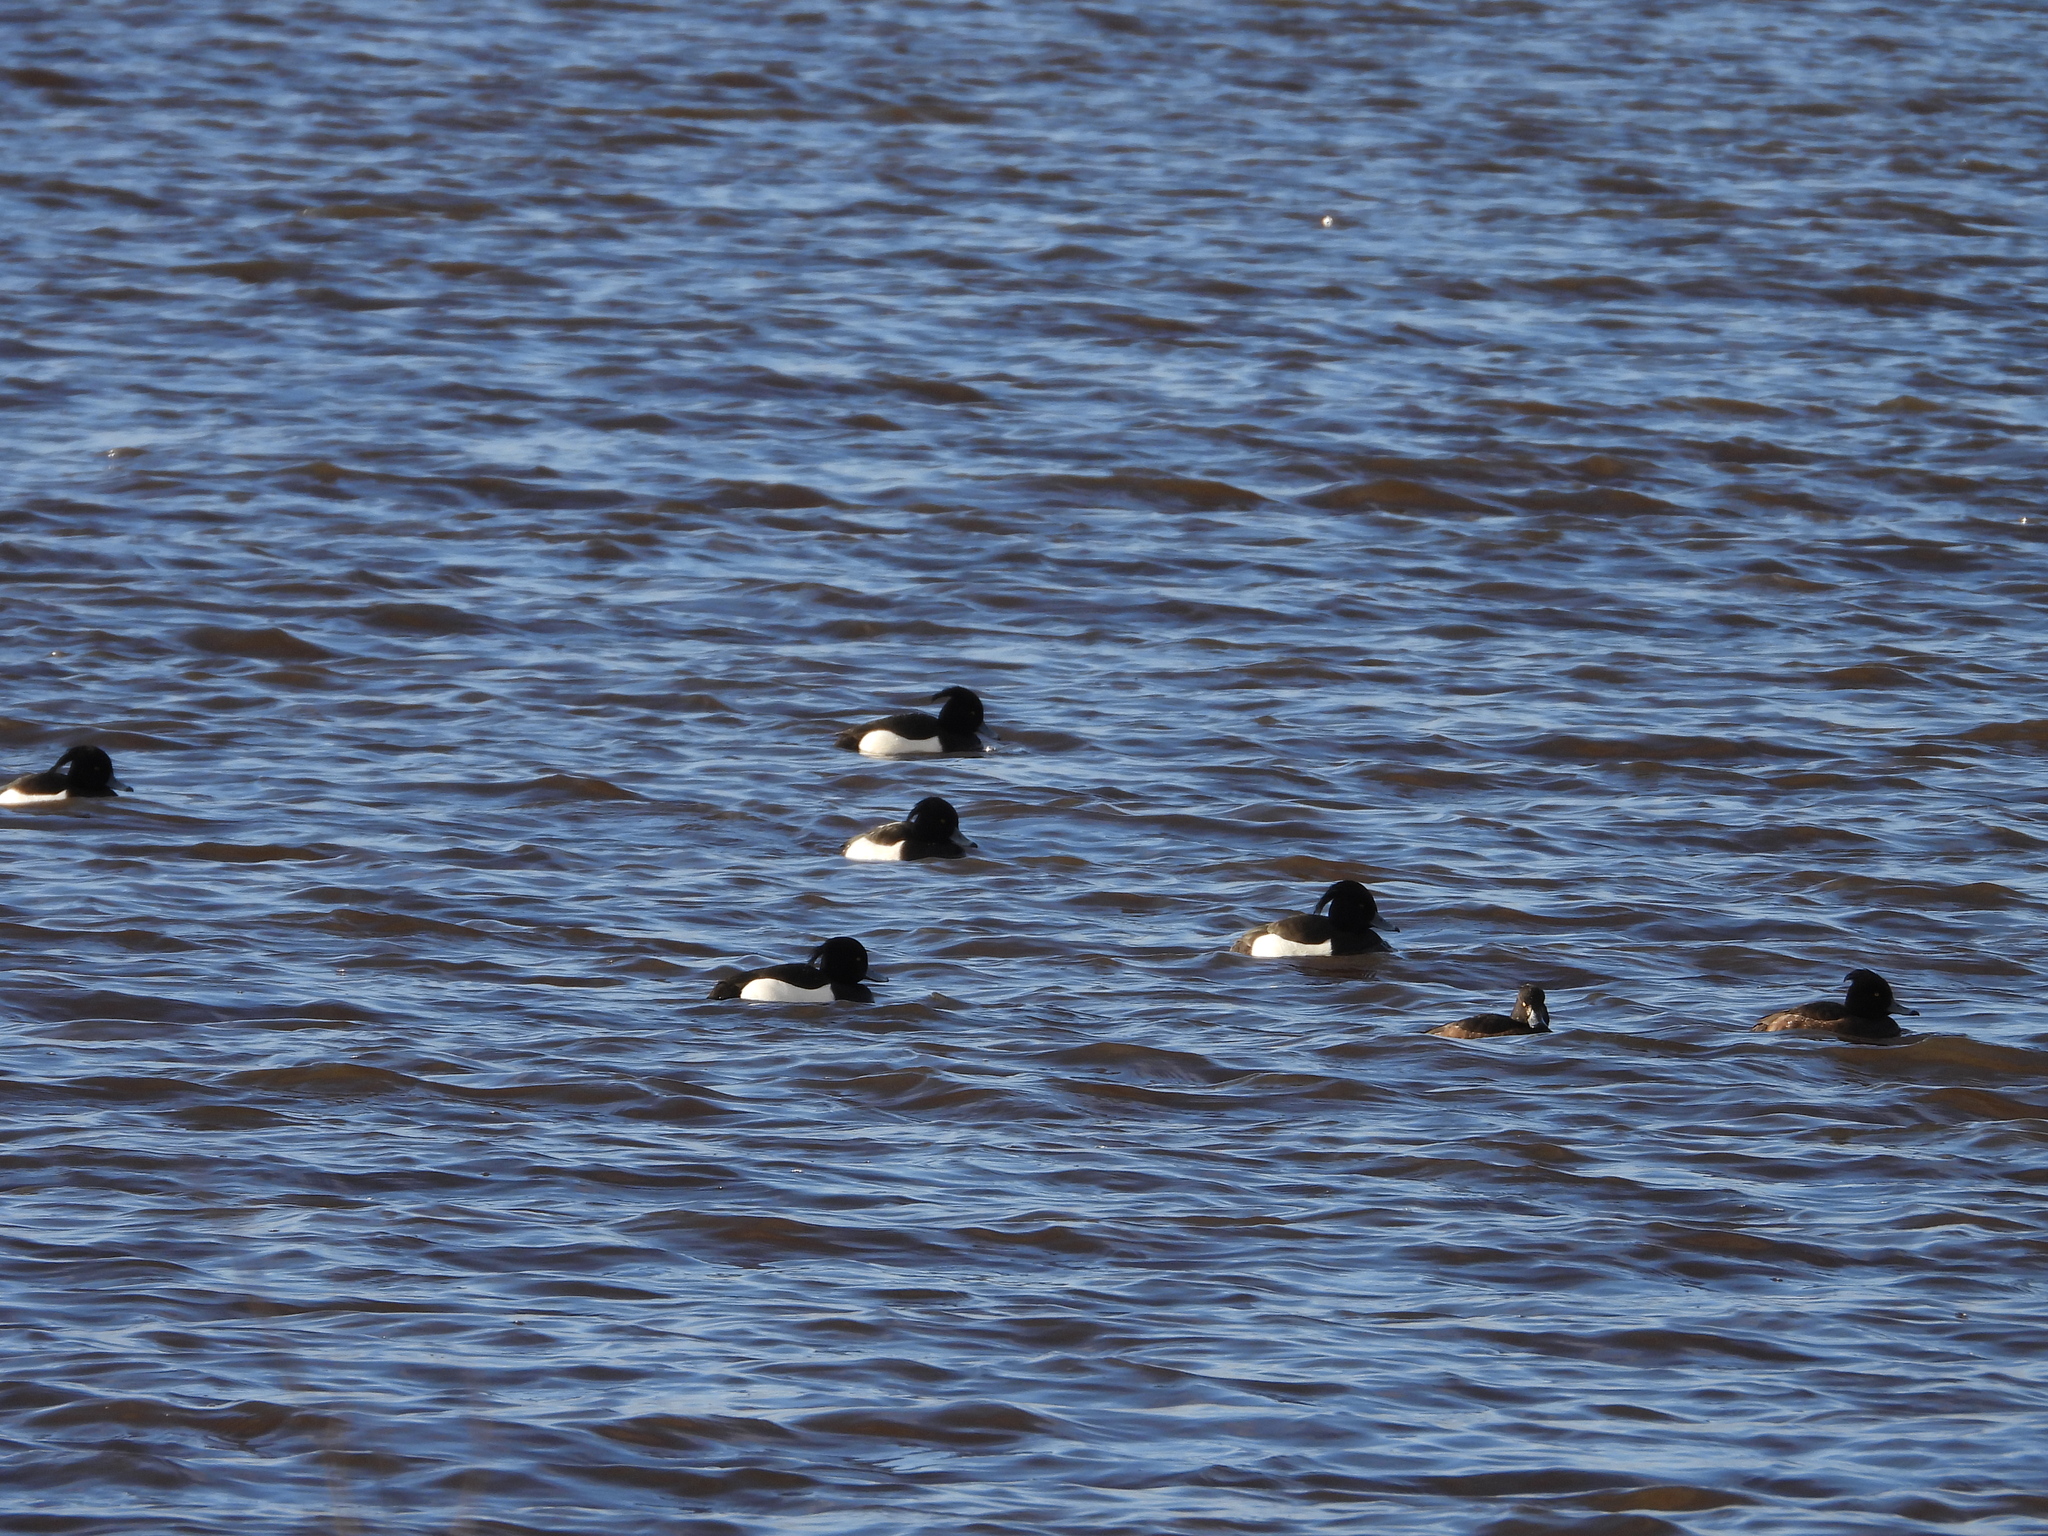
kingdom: Animalia
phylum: Chordata
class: Aves
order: Anseriformes
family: Anatidae
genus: Aythya
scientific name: Aythya fuligula
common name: Tufted duck
